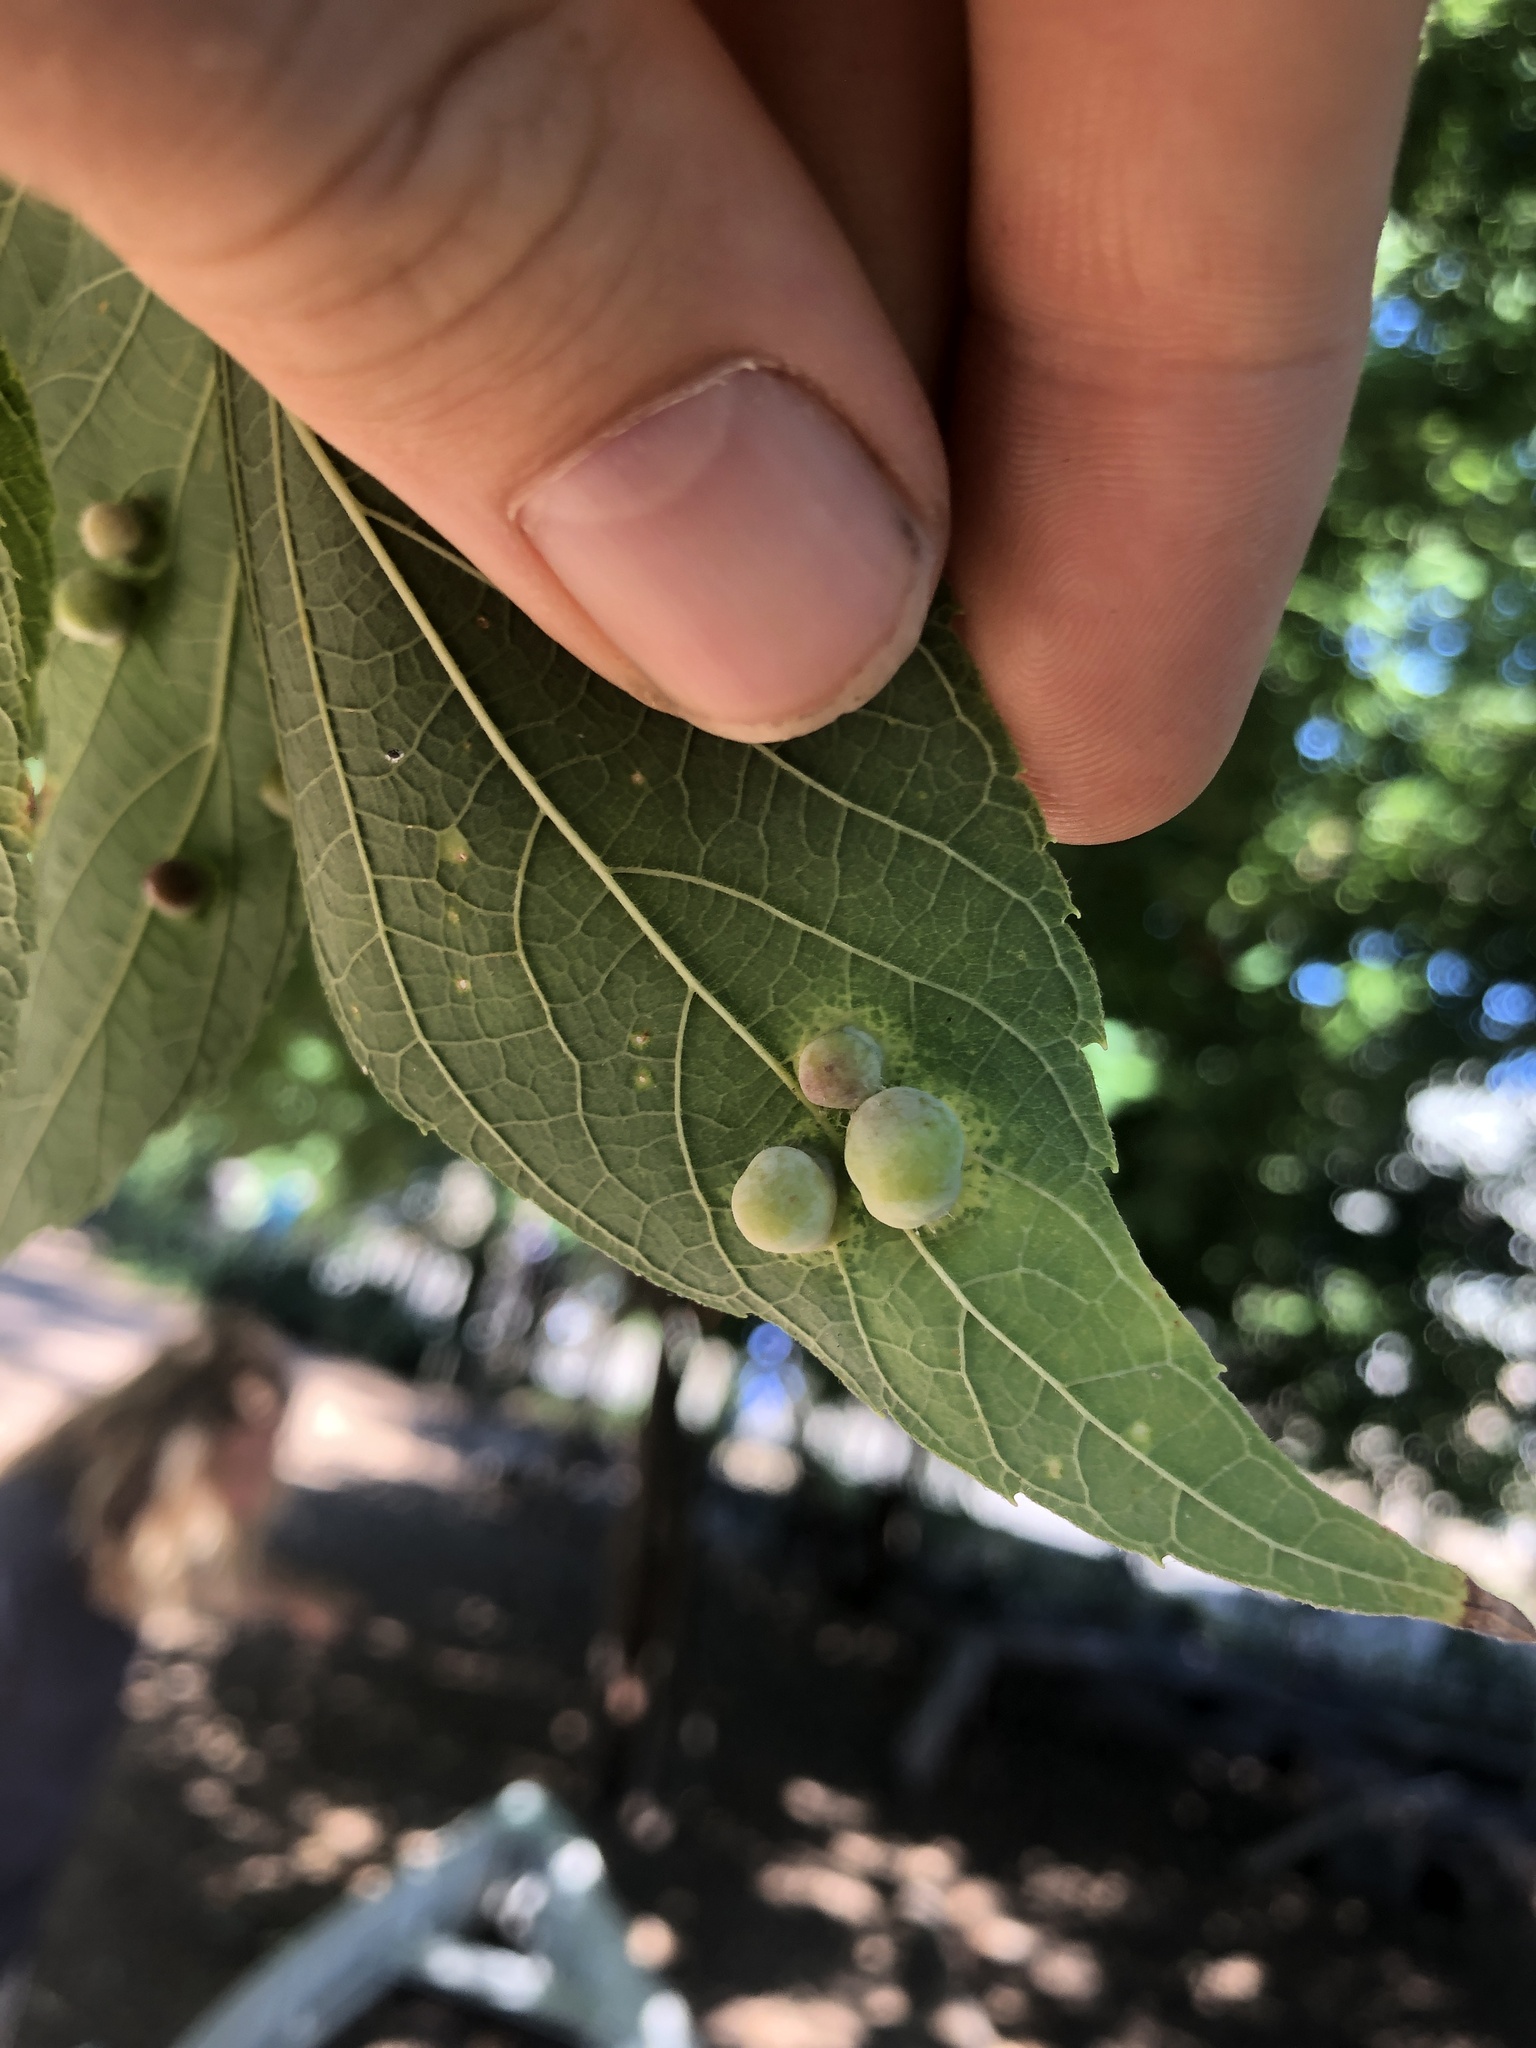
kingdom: Animalia
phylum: Arthropoda
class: Insecta
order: Hemiptera
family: Aphalaridae
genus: Pachypsylla
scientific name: Pachypsylla celtidismamma
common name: Hackberry nipplegall psyllid
